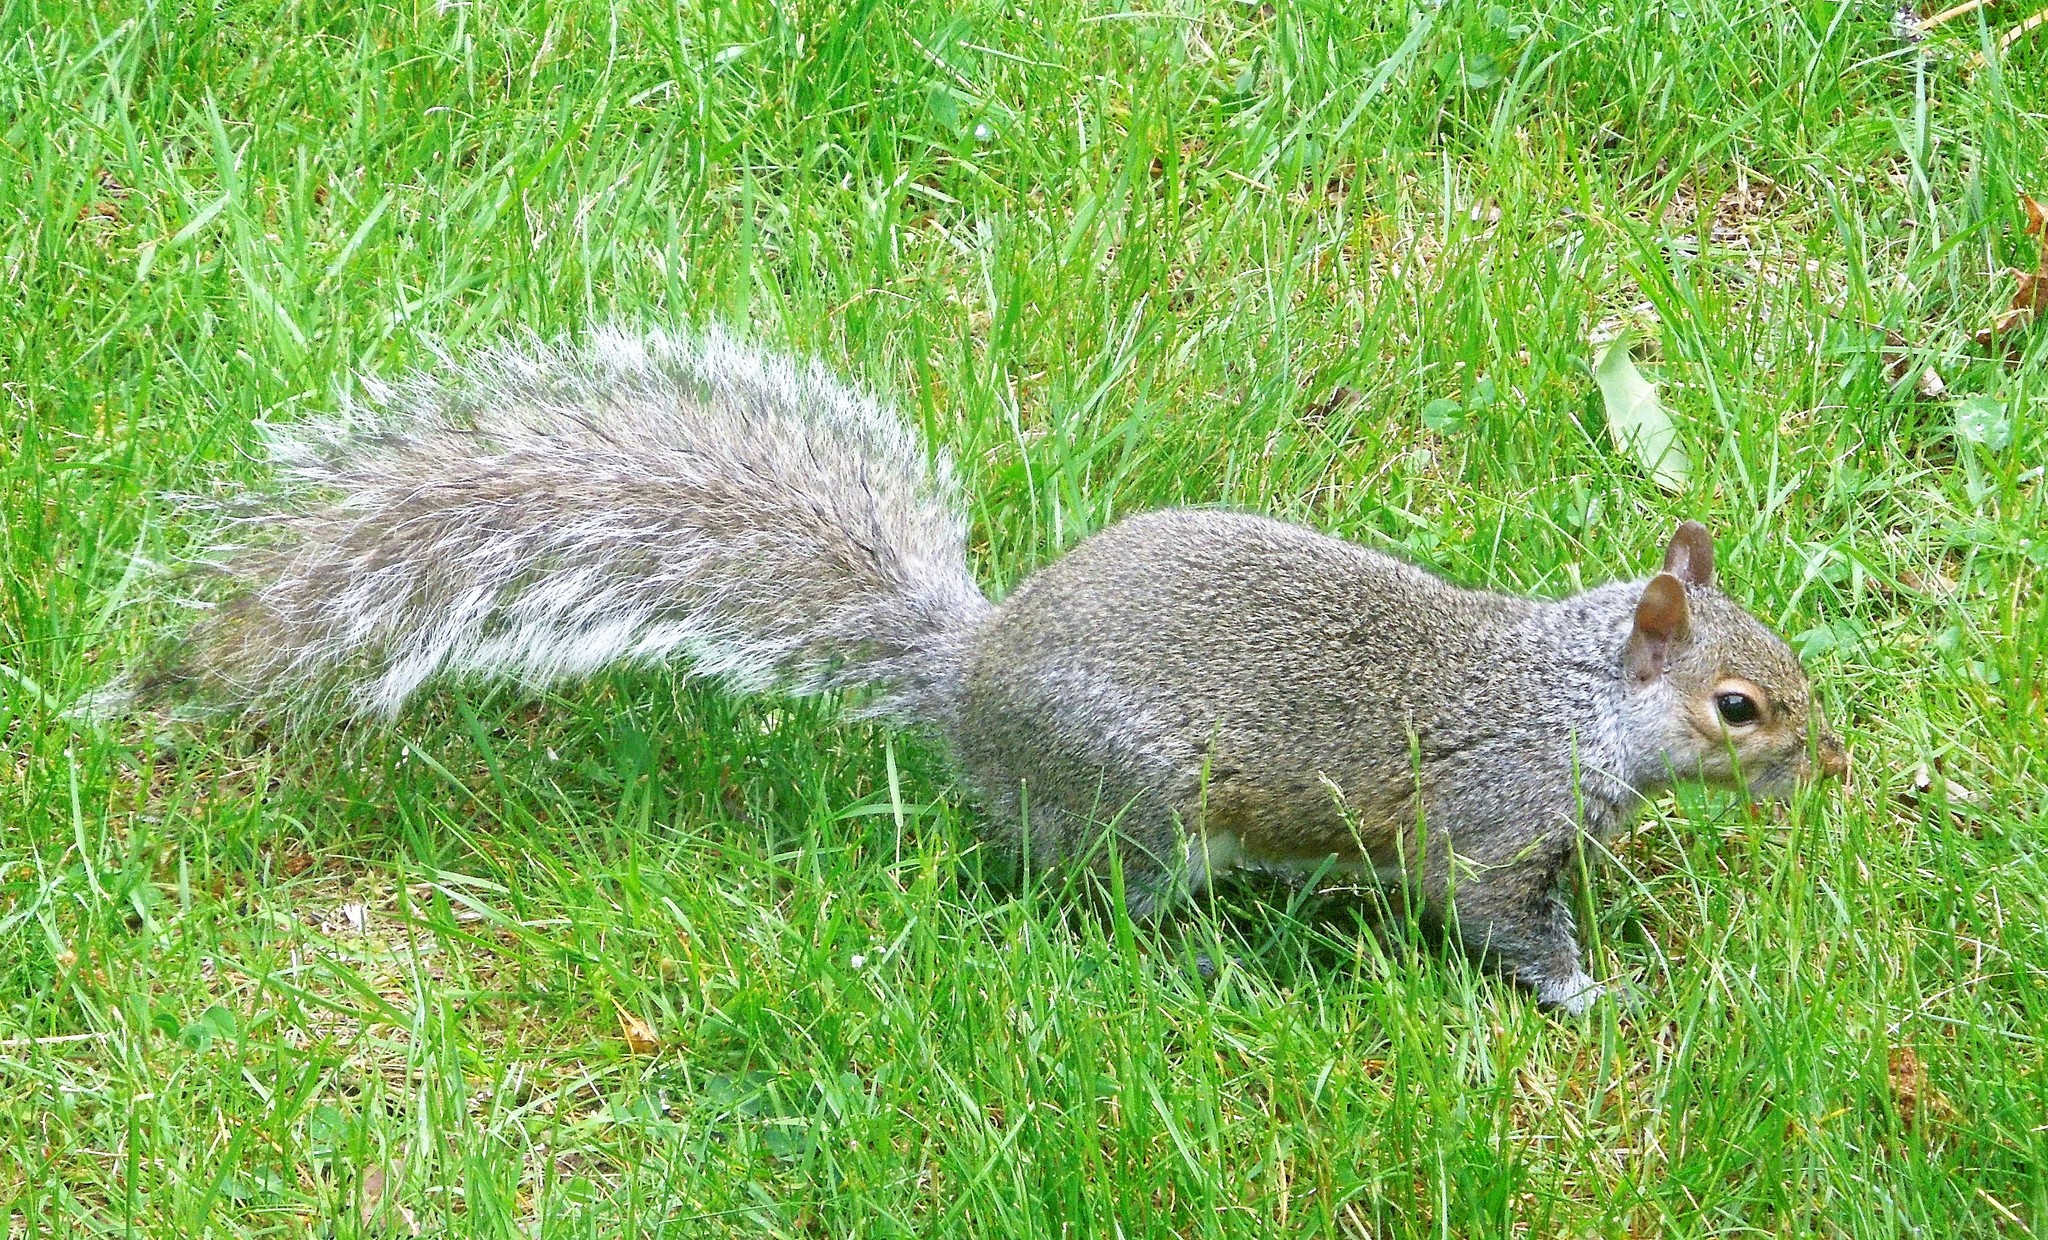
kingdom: Animalia
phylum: Chordata
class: Mammalia
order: Rodentia
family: Sciuridae
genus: Sciurus
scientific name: Sciurus carolinensis
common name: Eastern gray squirrel
